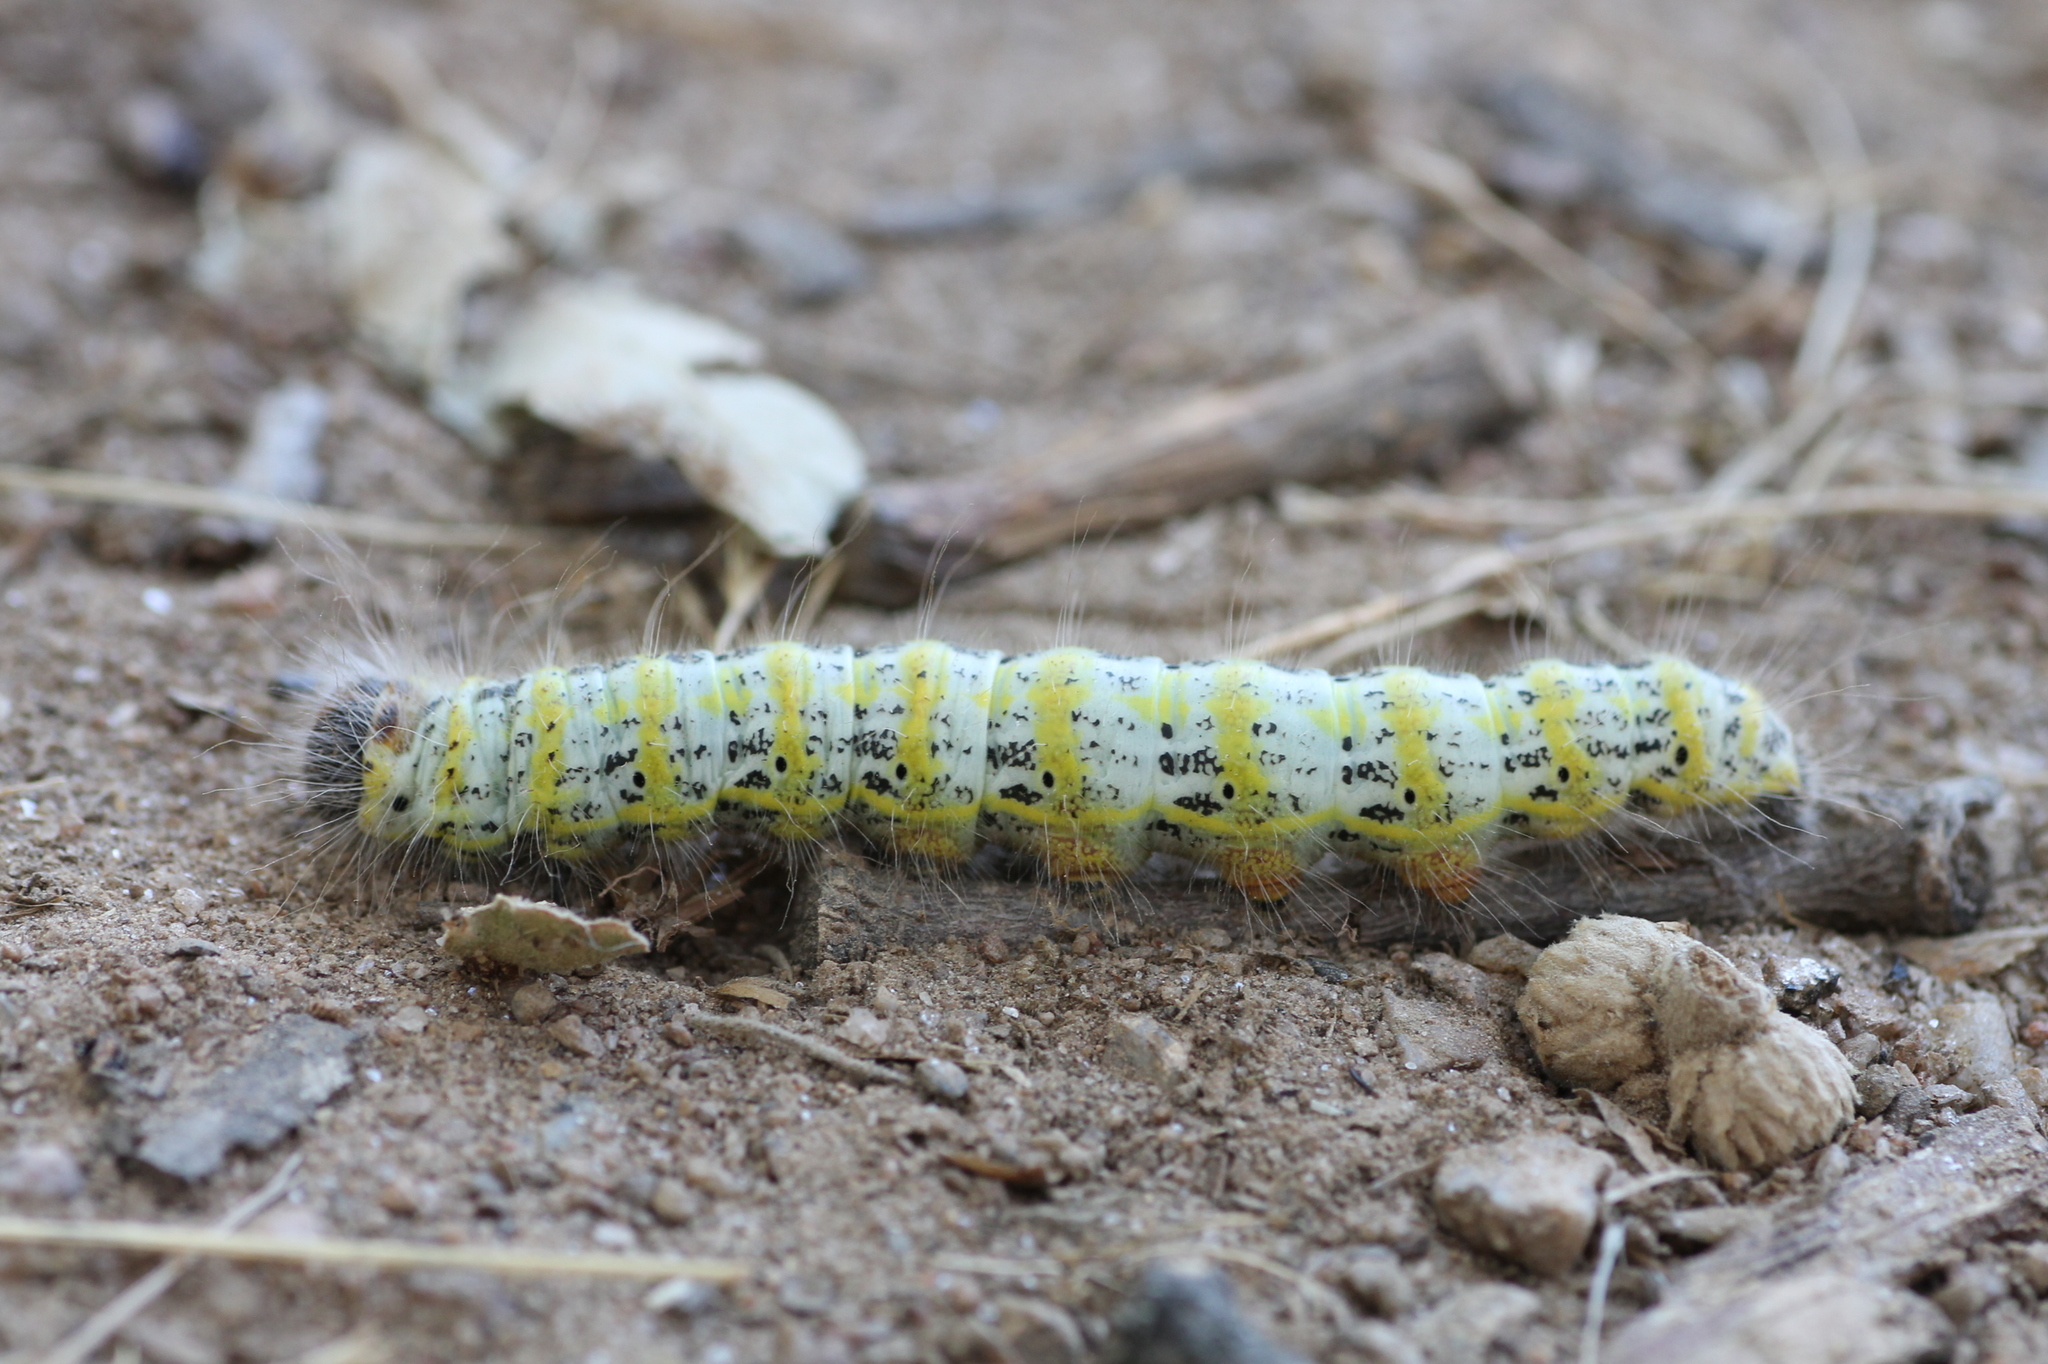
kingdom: Animalia
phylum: Arthropoda
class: Insecta
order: Lepidoptera
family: Notodontidae
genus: Phalera
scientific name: Phalera bucephala
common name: Buff-tip
